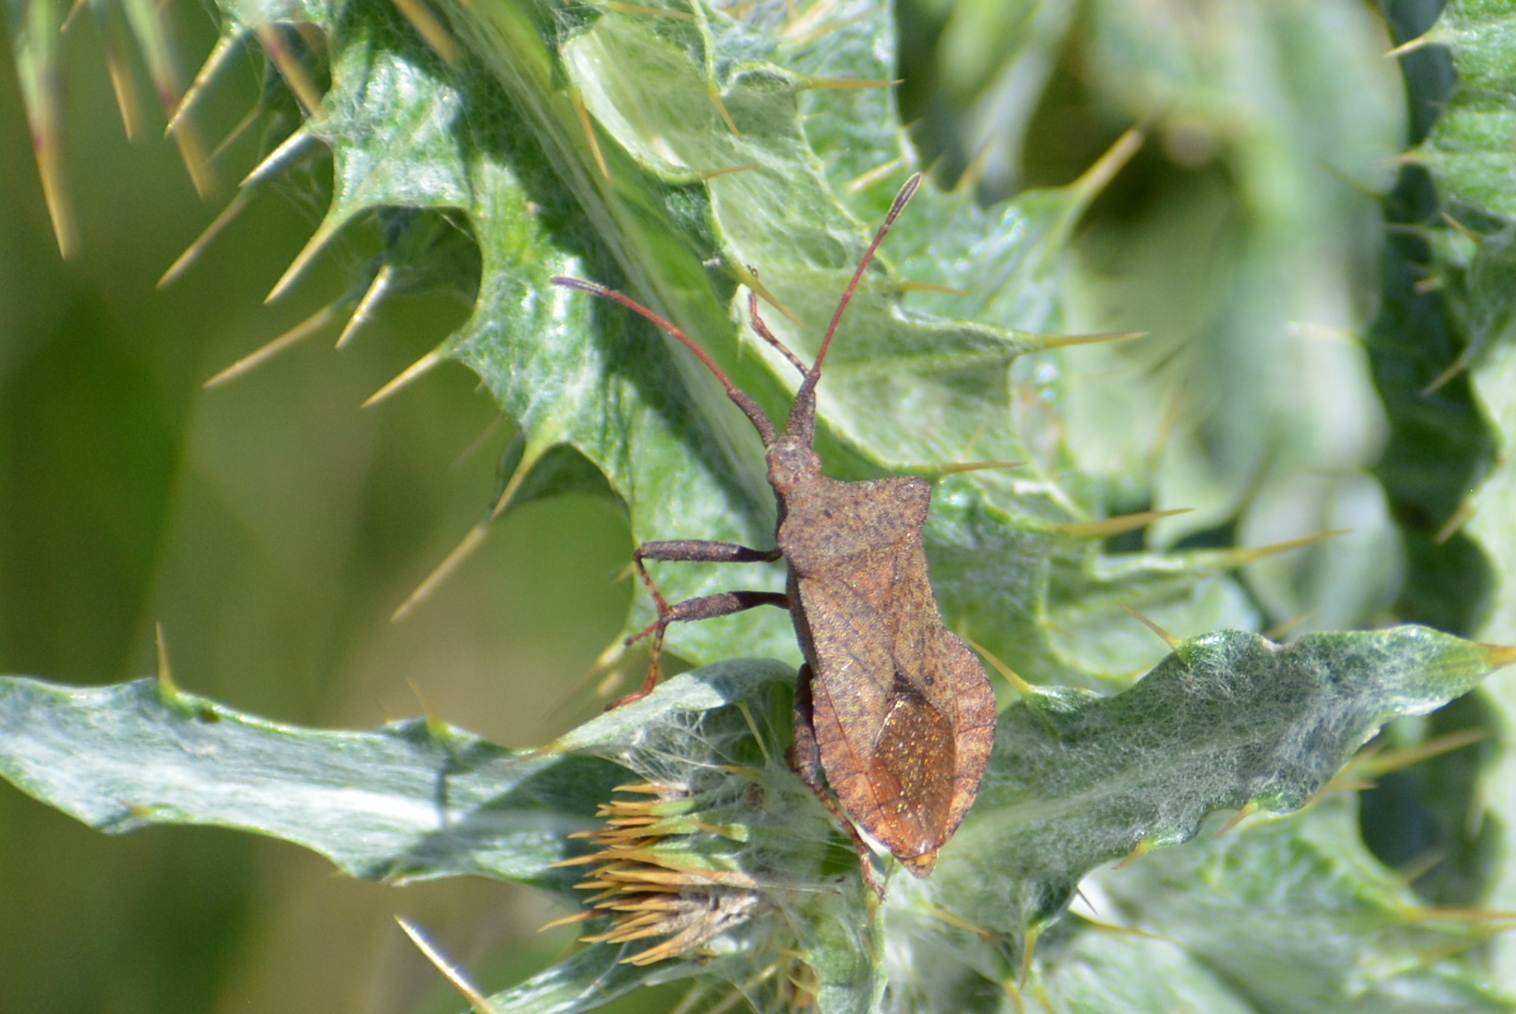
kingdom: Animalia
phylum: Arthropoda
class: Insecta
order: Hemiptera
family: Coreidae
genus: Coreus
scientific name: Coreus marginatus
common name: Dock bug
